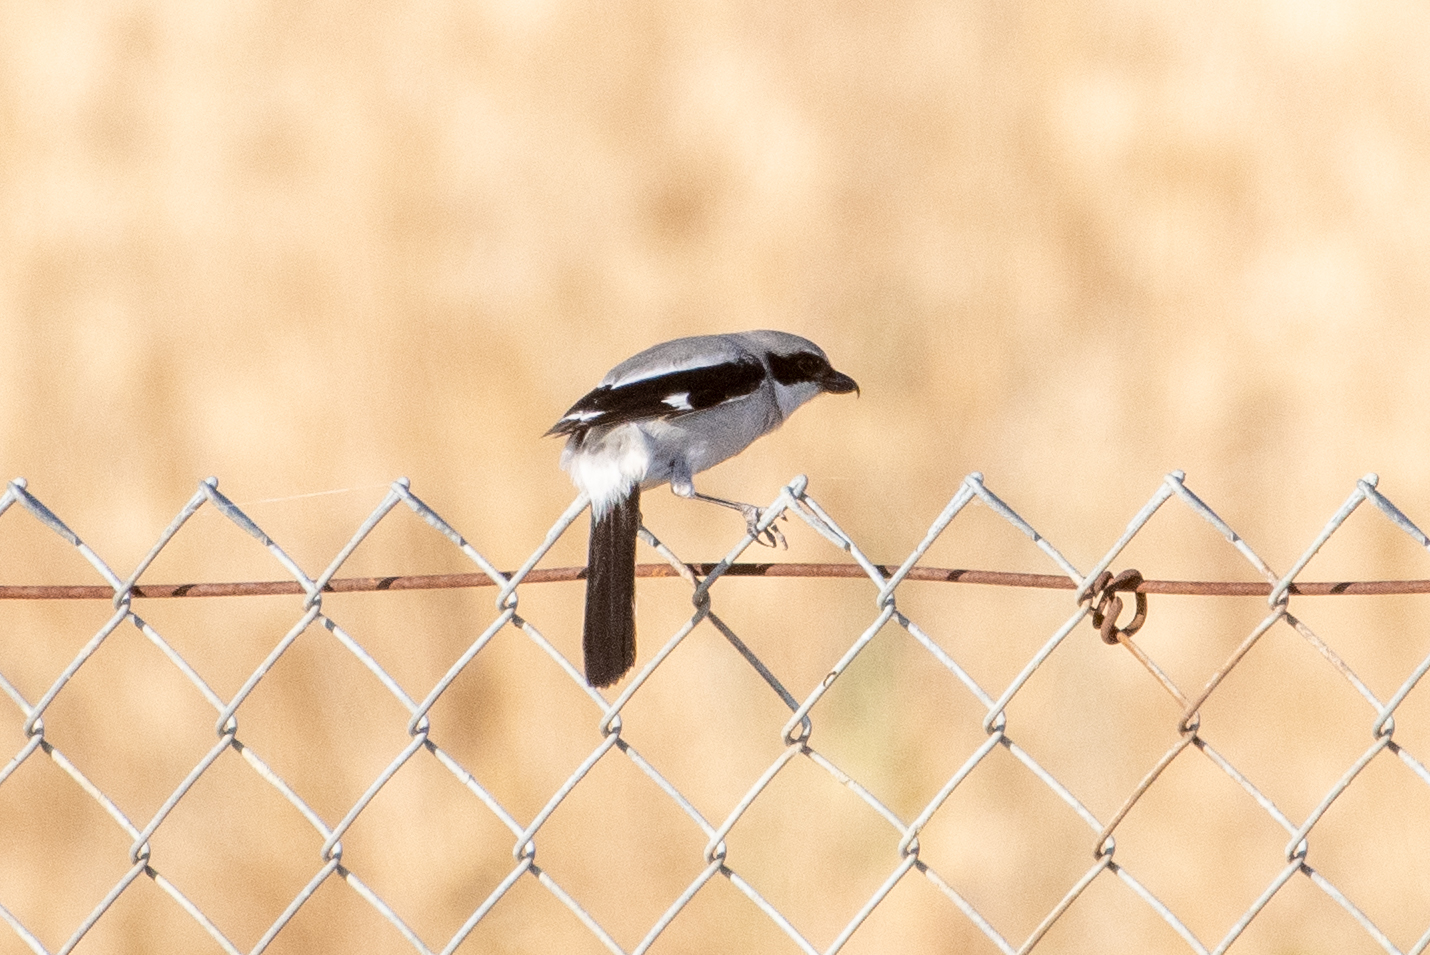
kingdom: Animalia
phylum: Chordata
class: Aves
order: Passeriformes
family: Laniidae
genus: Lanius
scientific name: Lanius ludovicianus
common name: Loggerhead shrike
